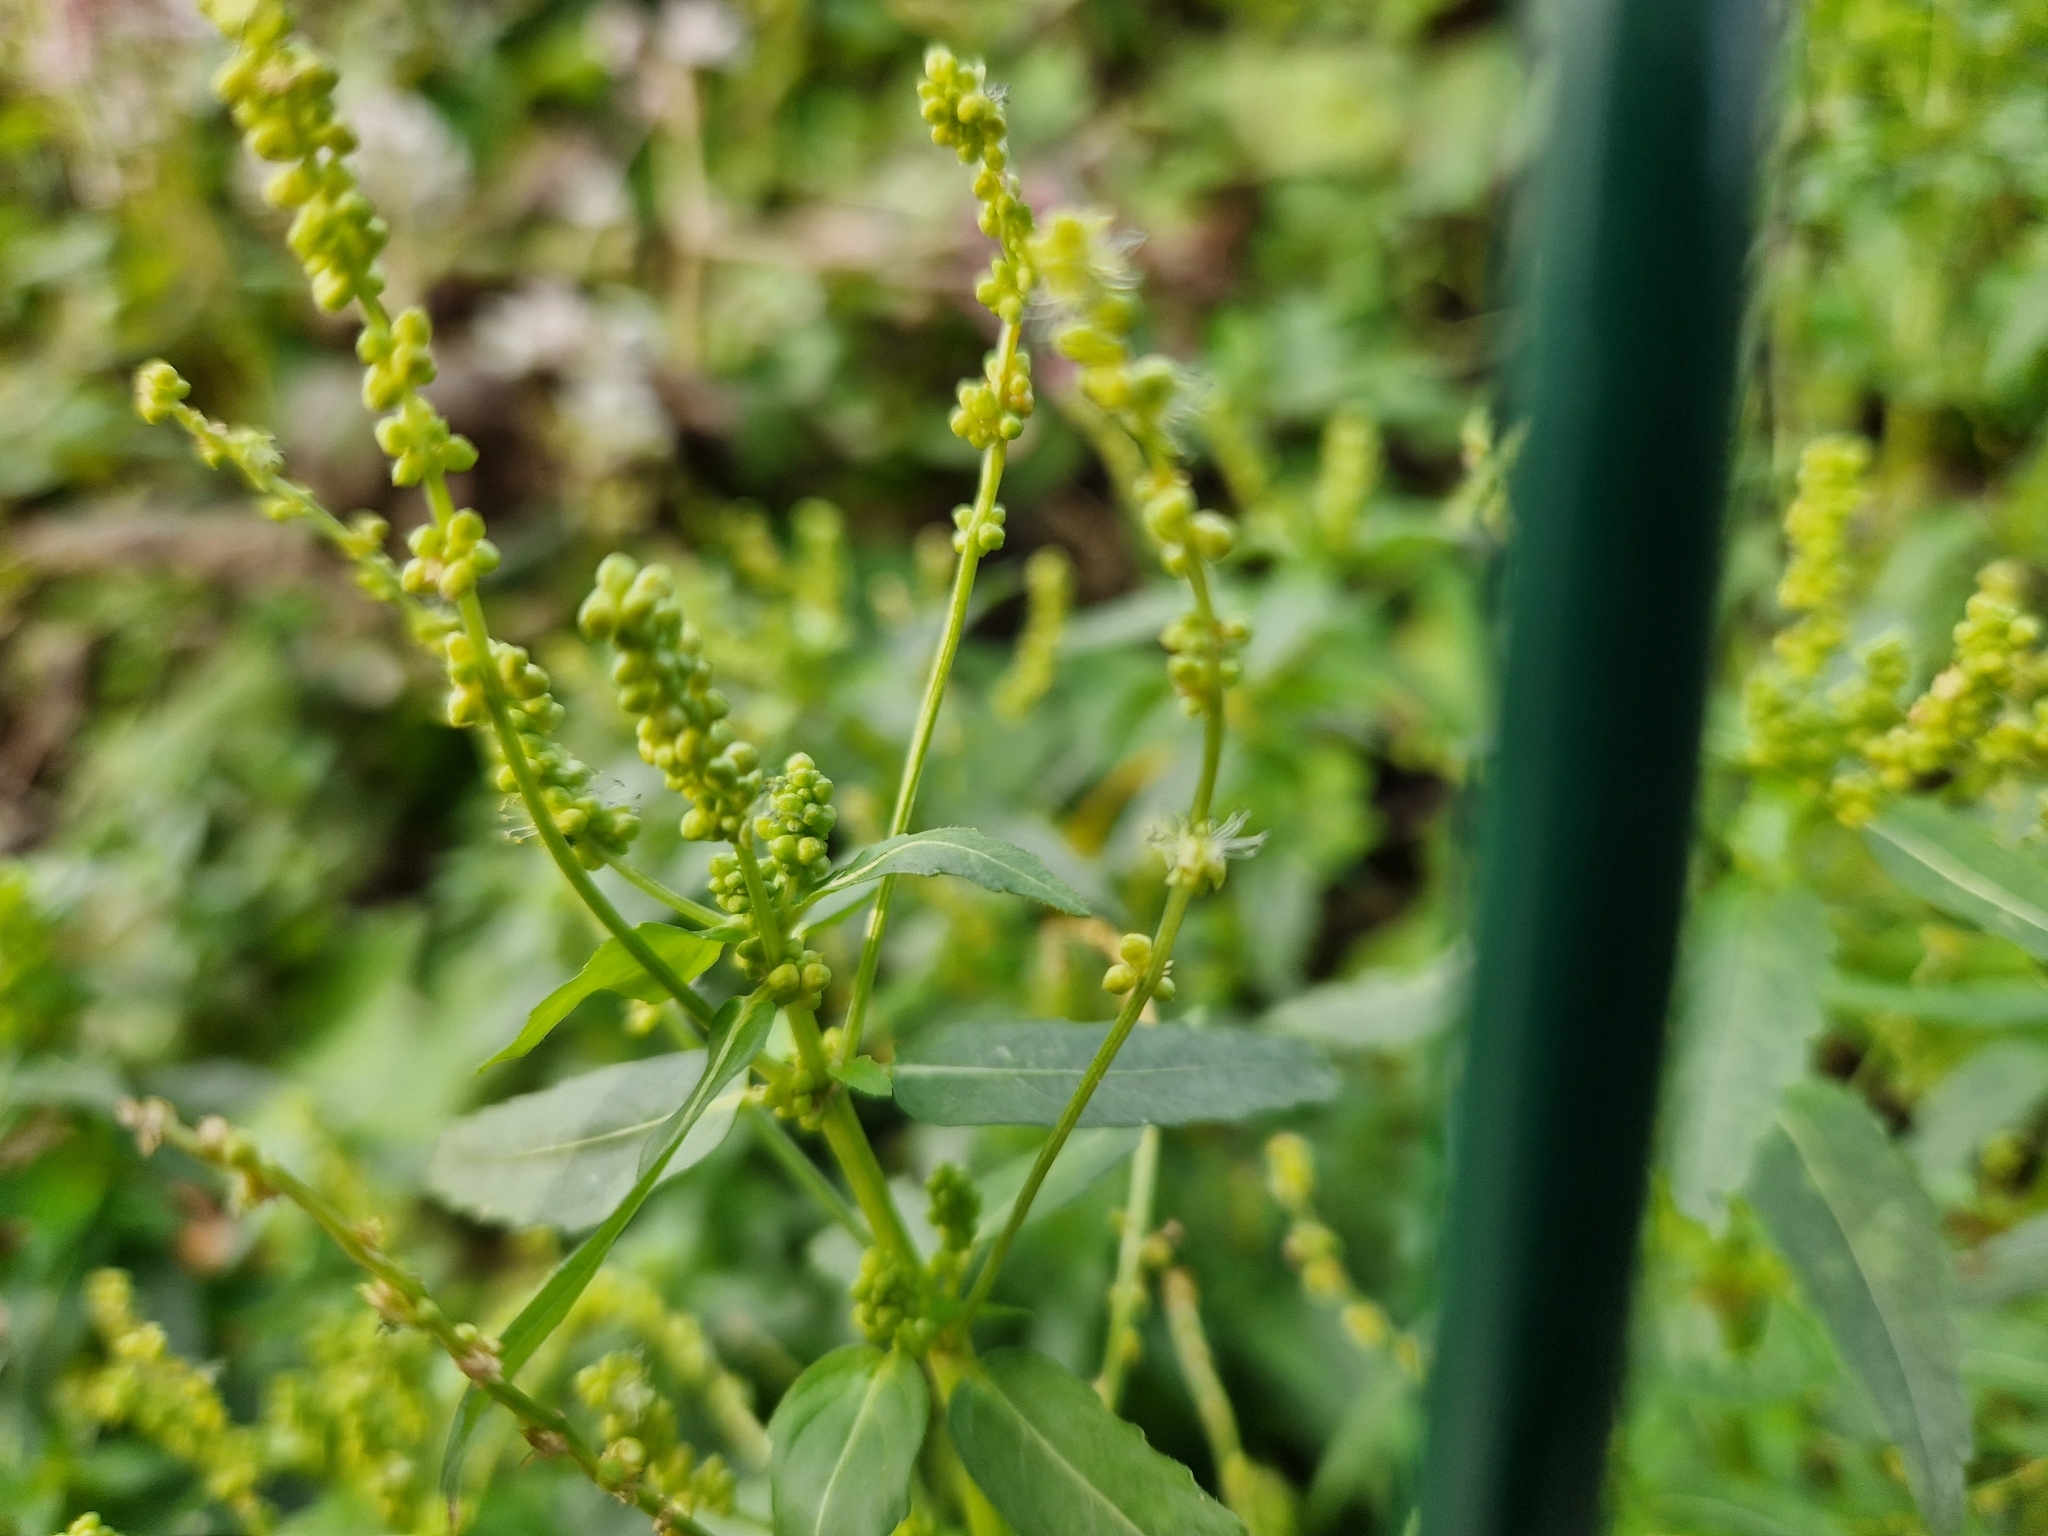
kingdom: Plantae
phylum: Tracheophyta
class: Magnoliopsida
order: Malpighiales
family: Euphorbiaceae
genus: Mercurialis
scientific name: Mercurialis annua
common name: Annual mercury
